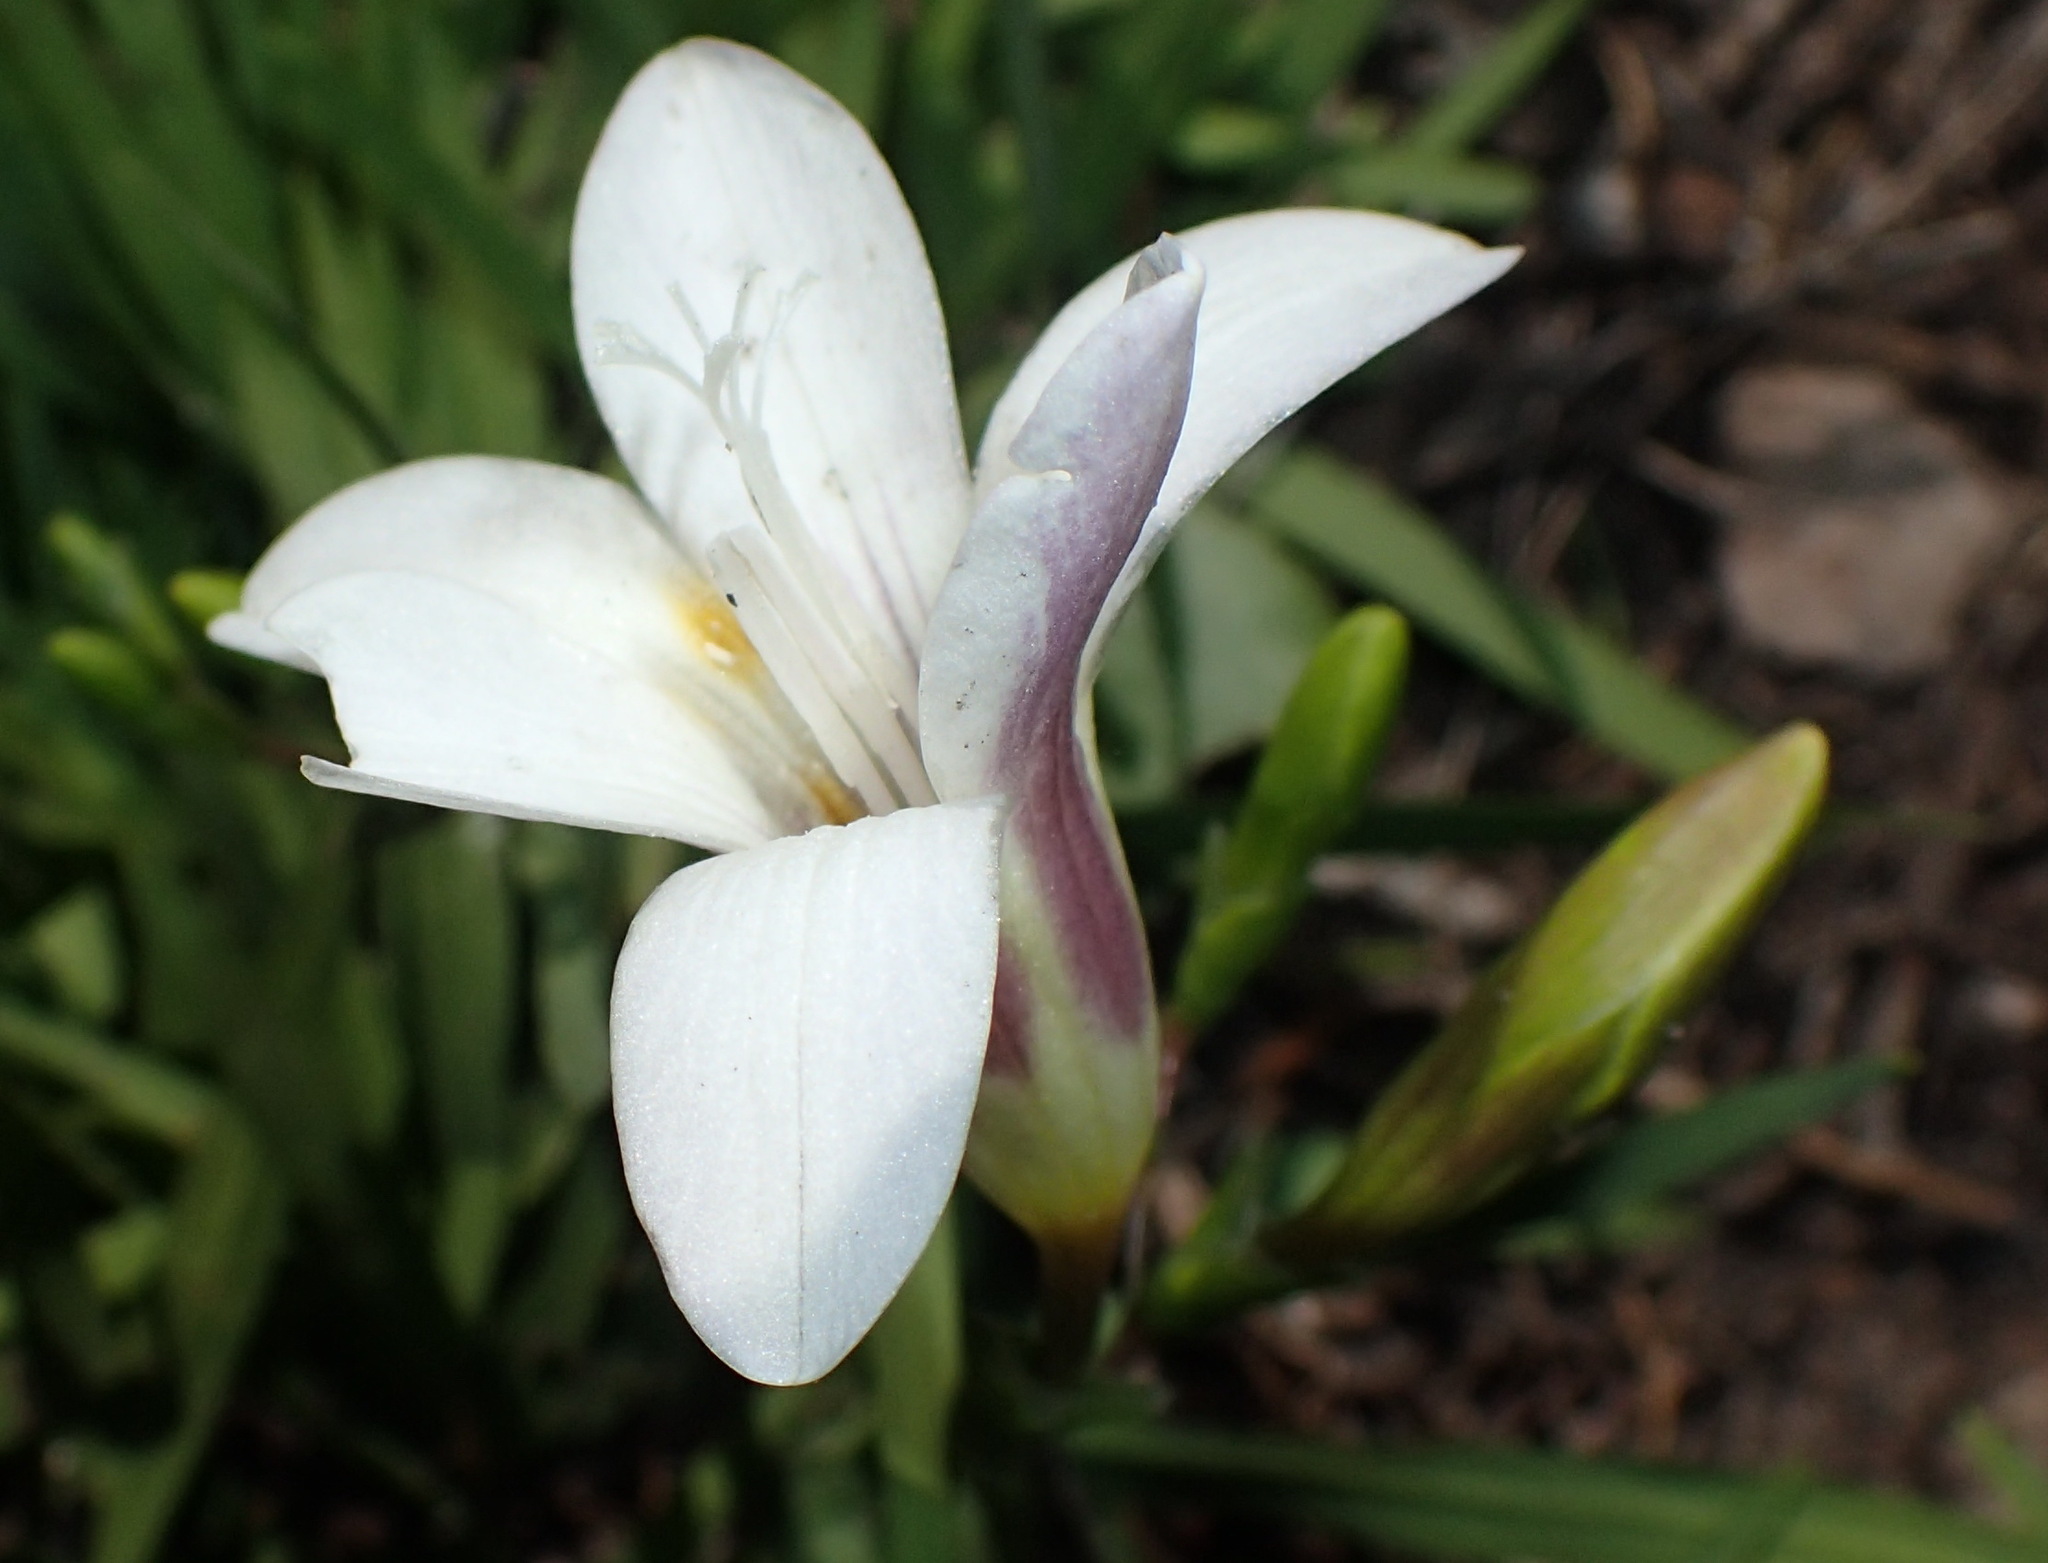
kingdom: Plantae
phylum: Tracheophyta
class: Liliopsida
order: Asparagales
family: Iridaceae
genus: Freesia
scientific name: Freesia leichtlinii
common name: Freesia
